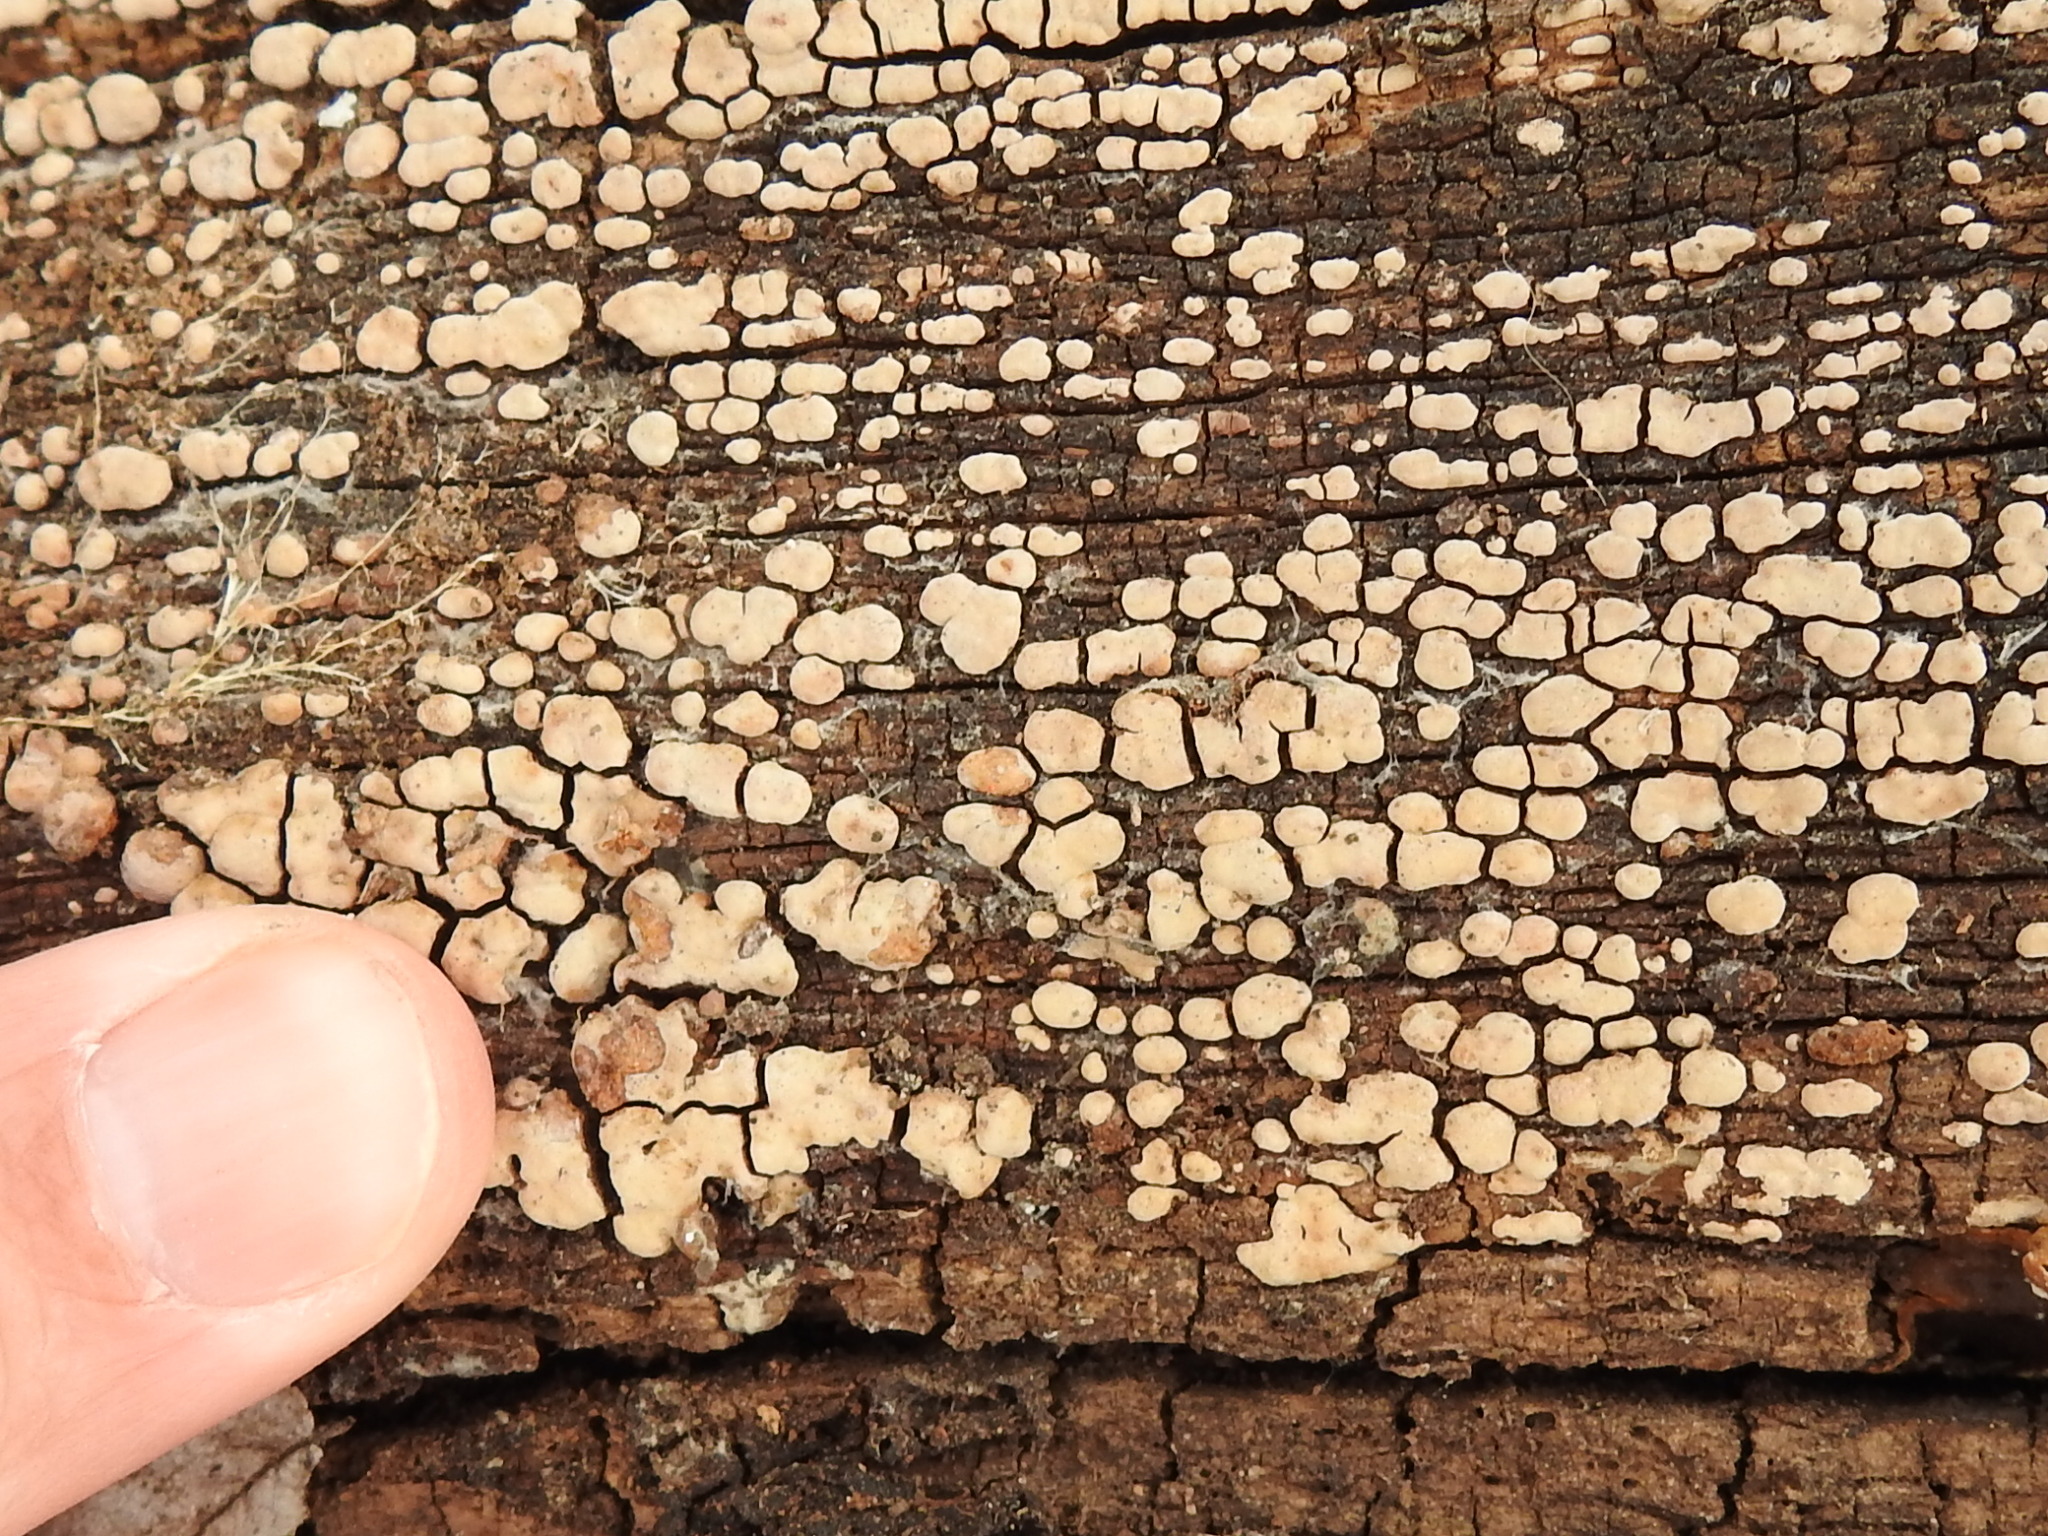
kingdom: Fungi
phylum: Basidiomycota
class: Agaricomycetes
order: Russulales
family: Stereaceae
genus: Xylobolus
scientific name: Xylobolus frustulatus
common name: Ceramic parchment
